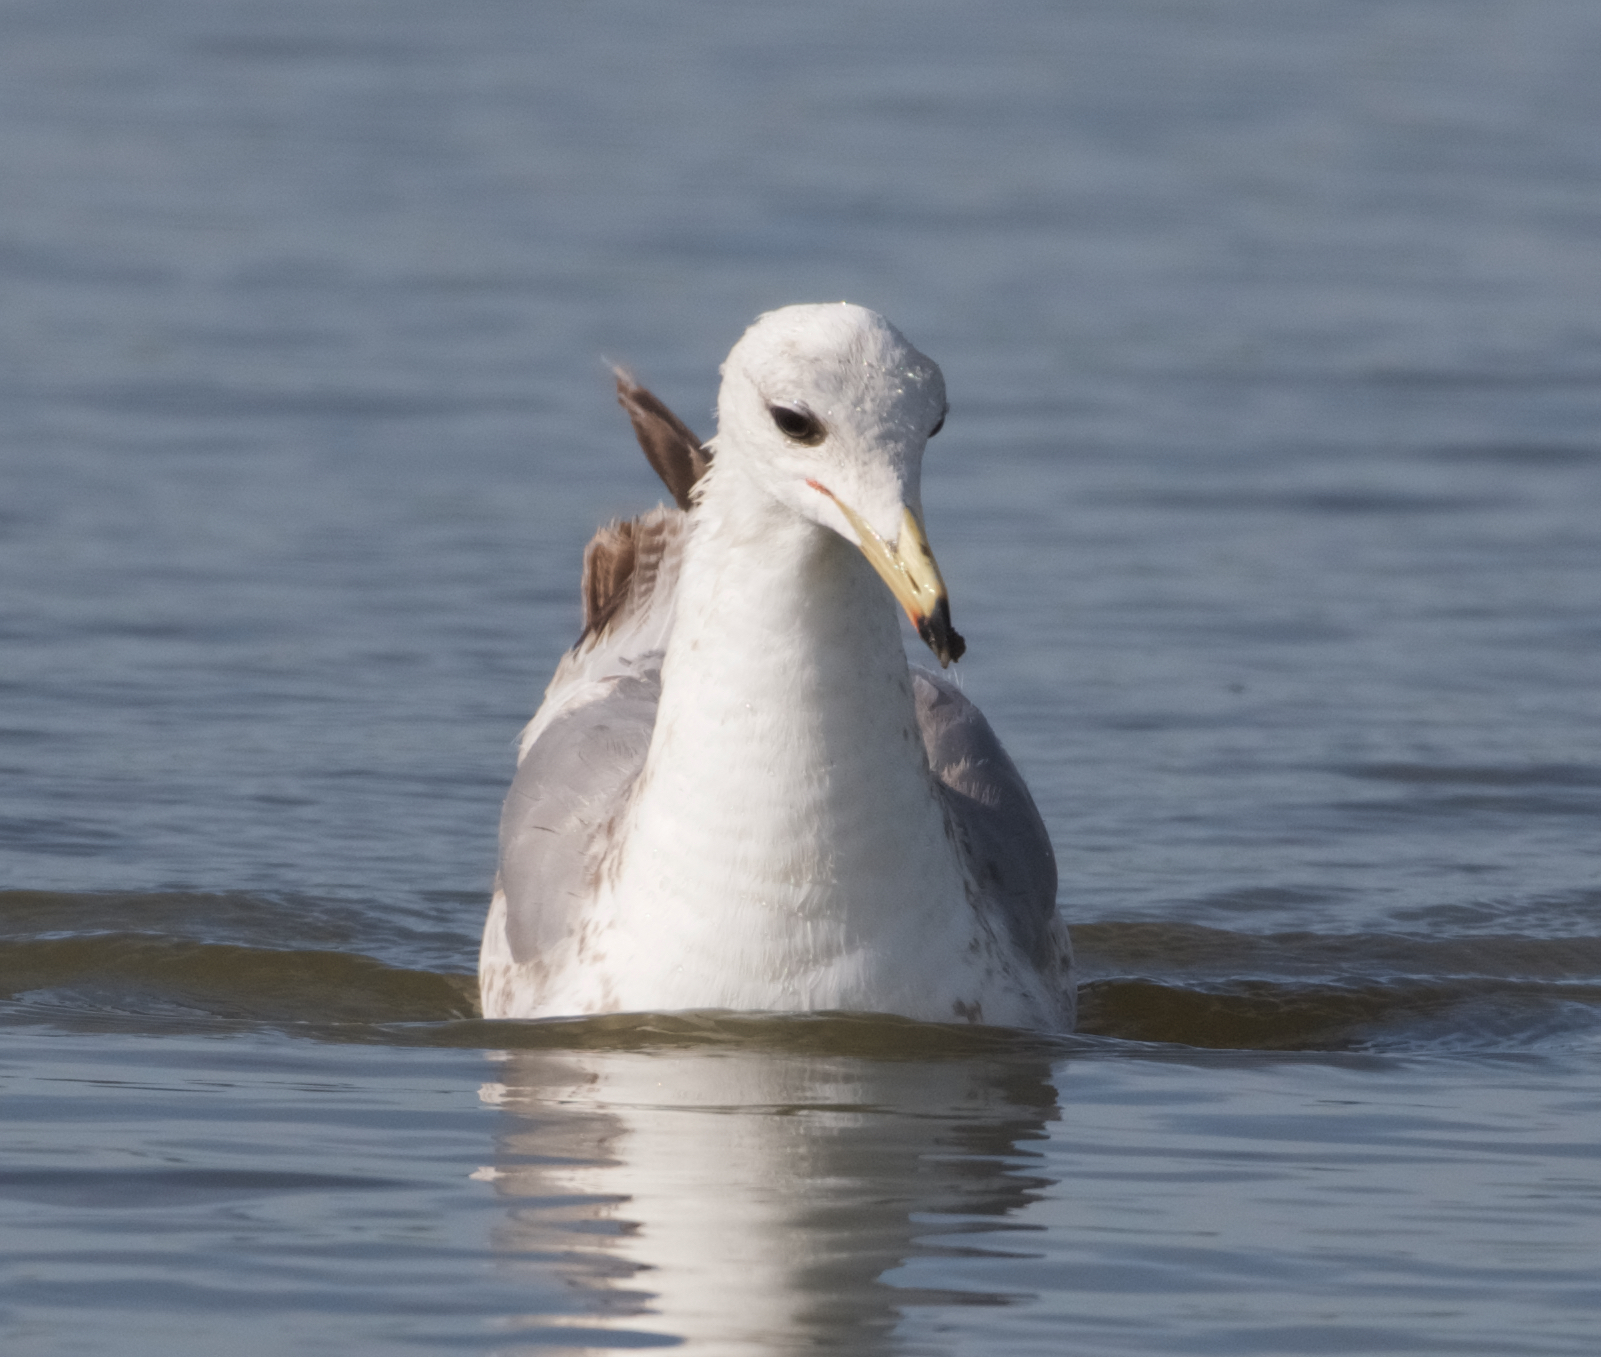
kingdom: Animalia
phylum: Chordata
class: Aves
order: Charadriiformes
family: Laridae
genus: Larus
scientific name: Larus californicus
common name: California gull
